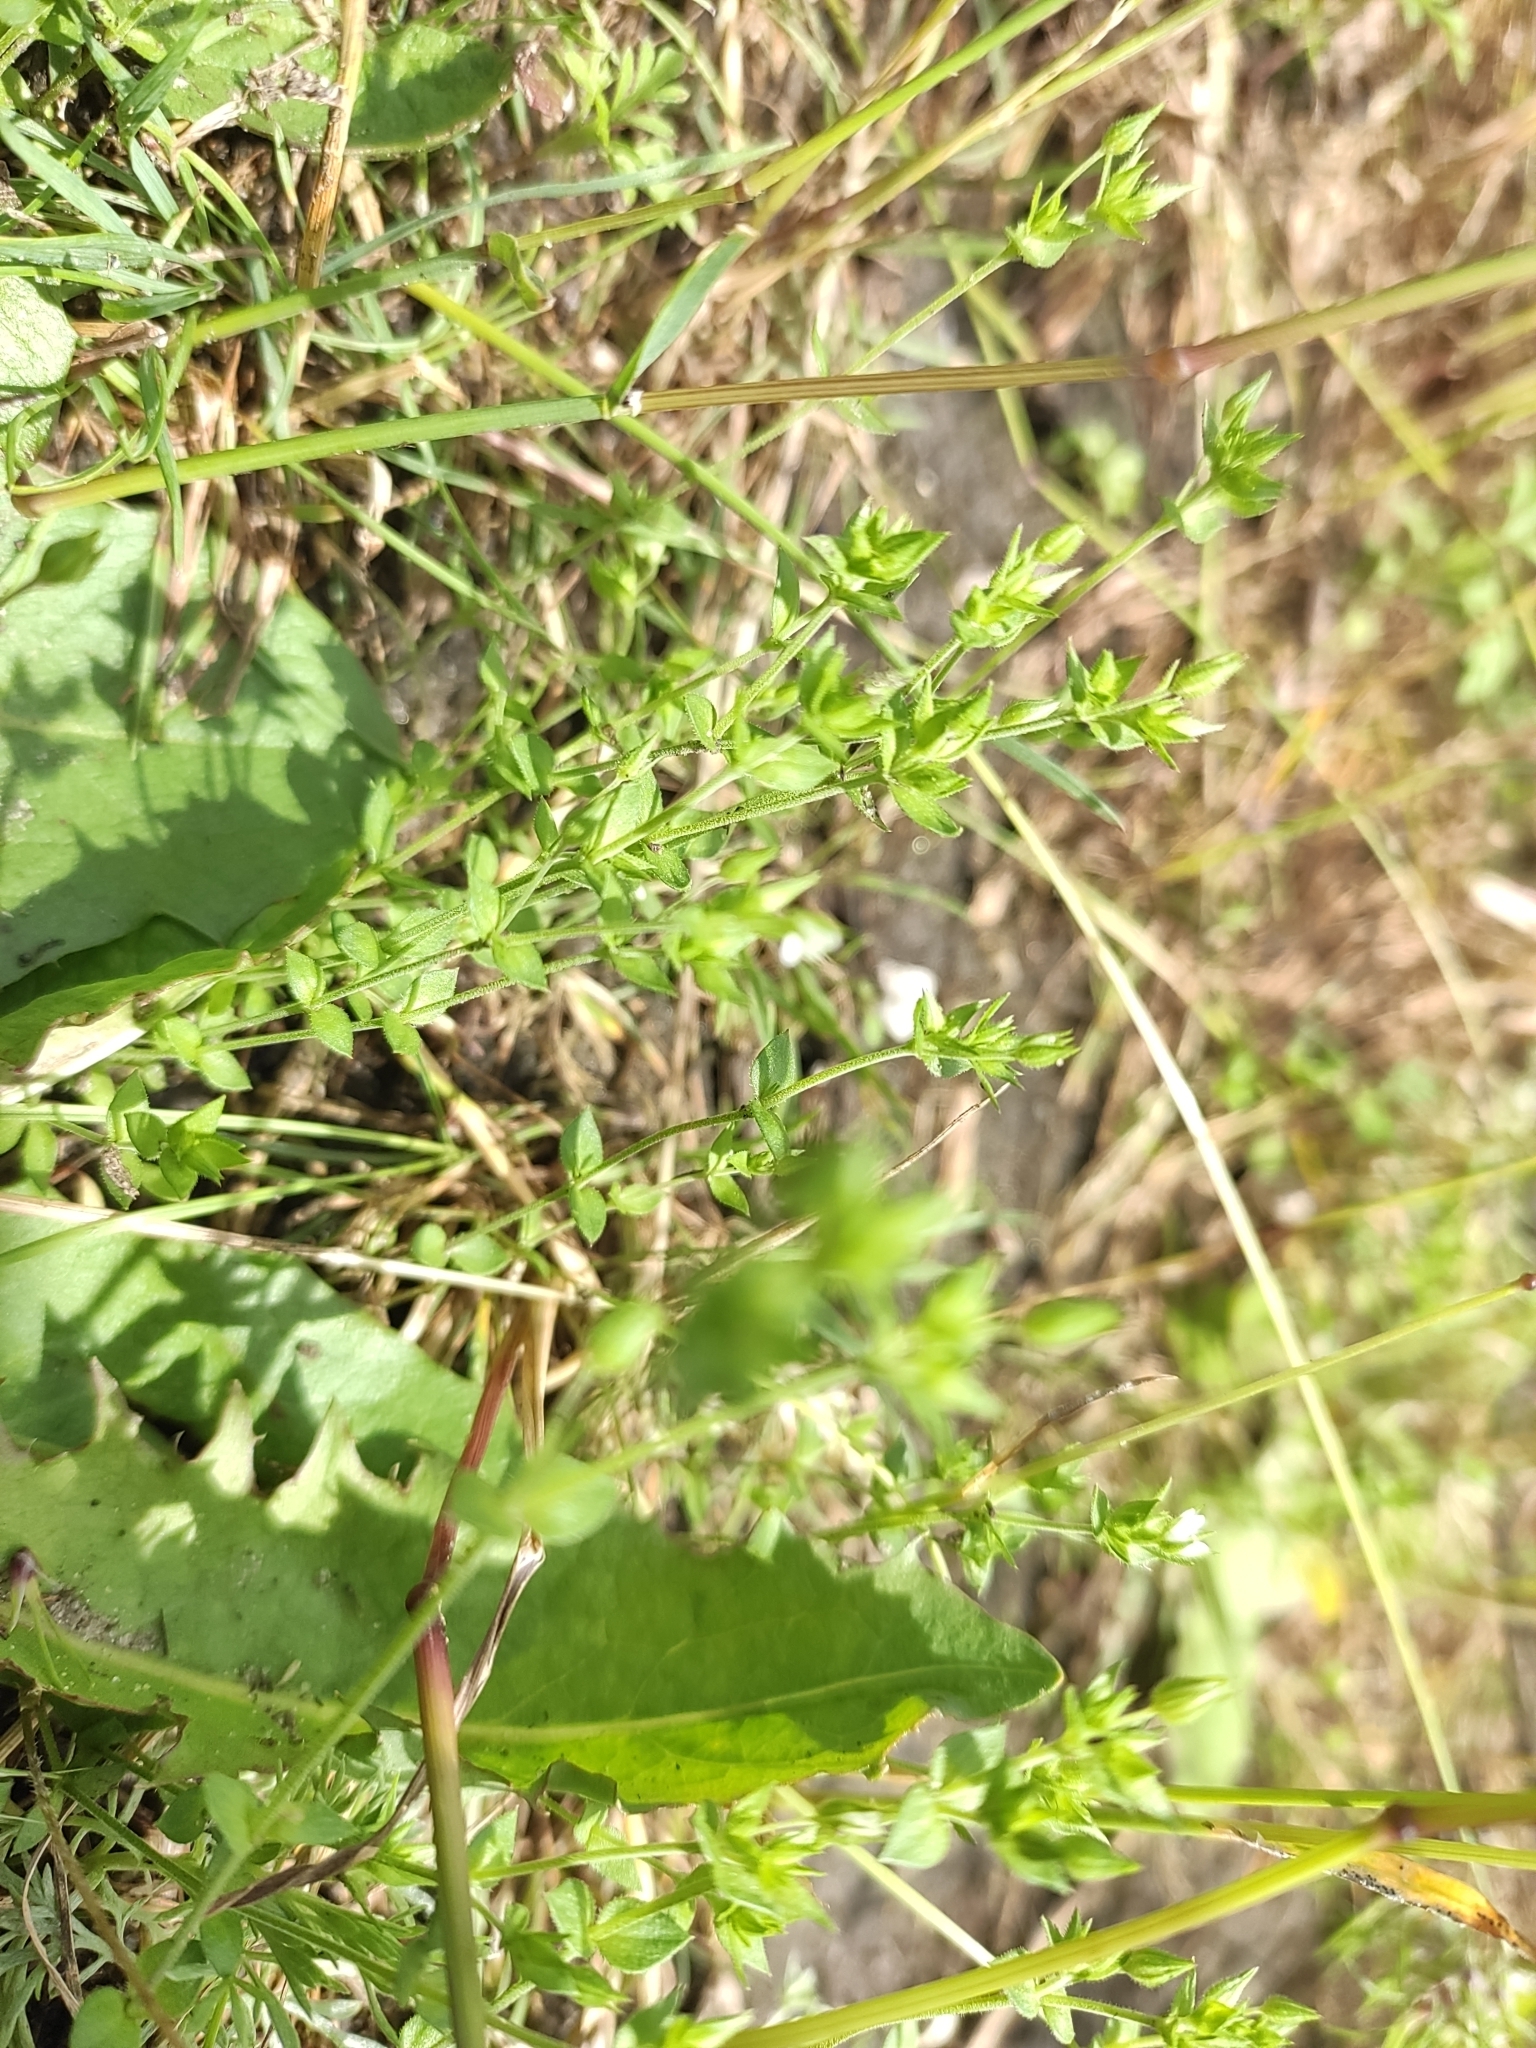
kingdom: Plantae
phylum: Tracheophyta
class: Magnoliopsida
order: Caryophyllales
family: Caryophyllaceae
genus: Arenaria
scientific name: Arenaria serpyllifolia
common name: Thyme-leaved sandwort
